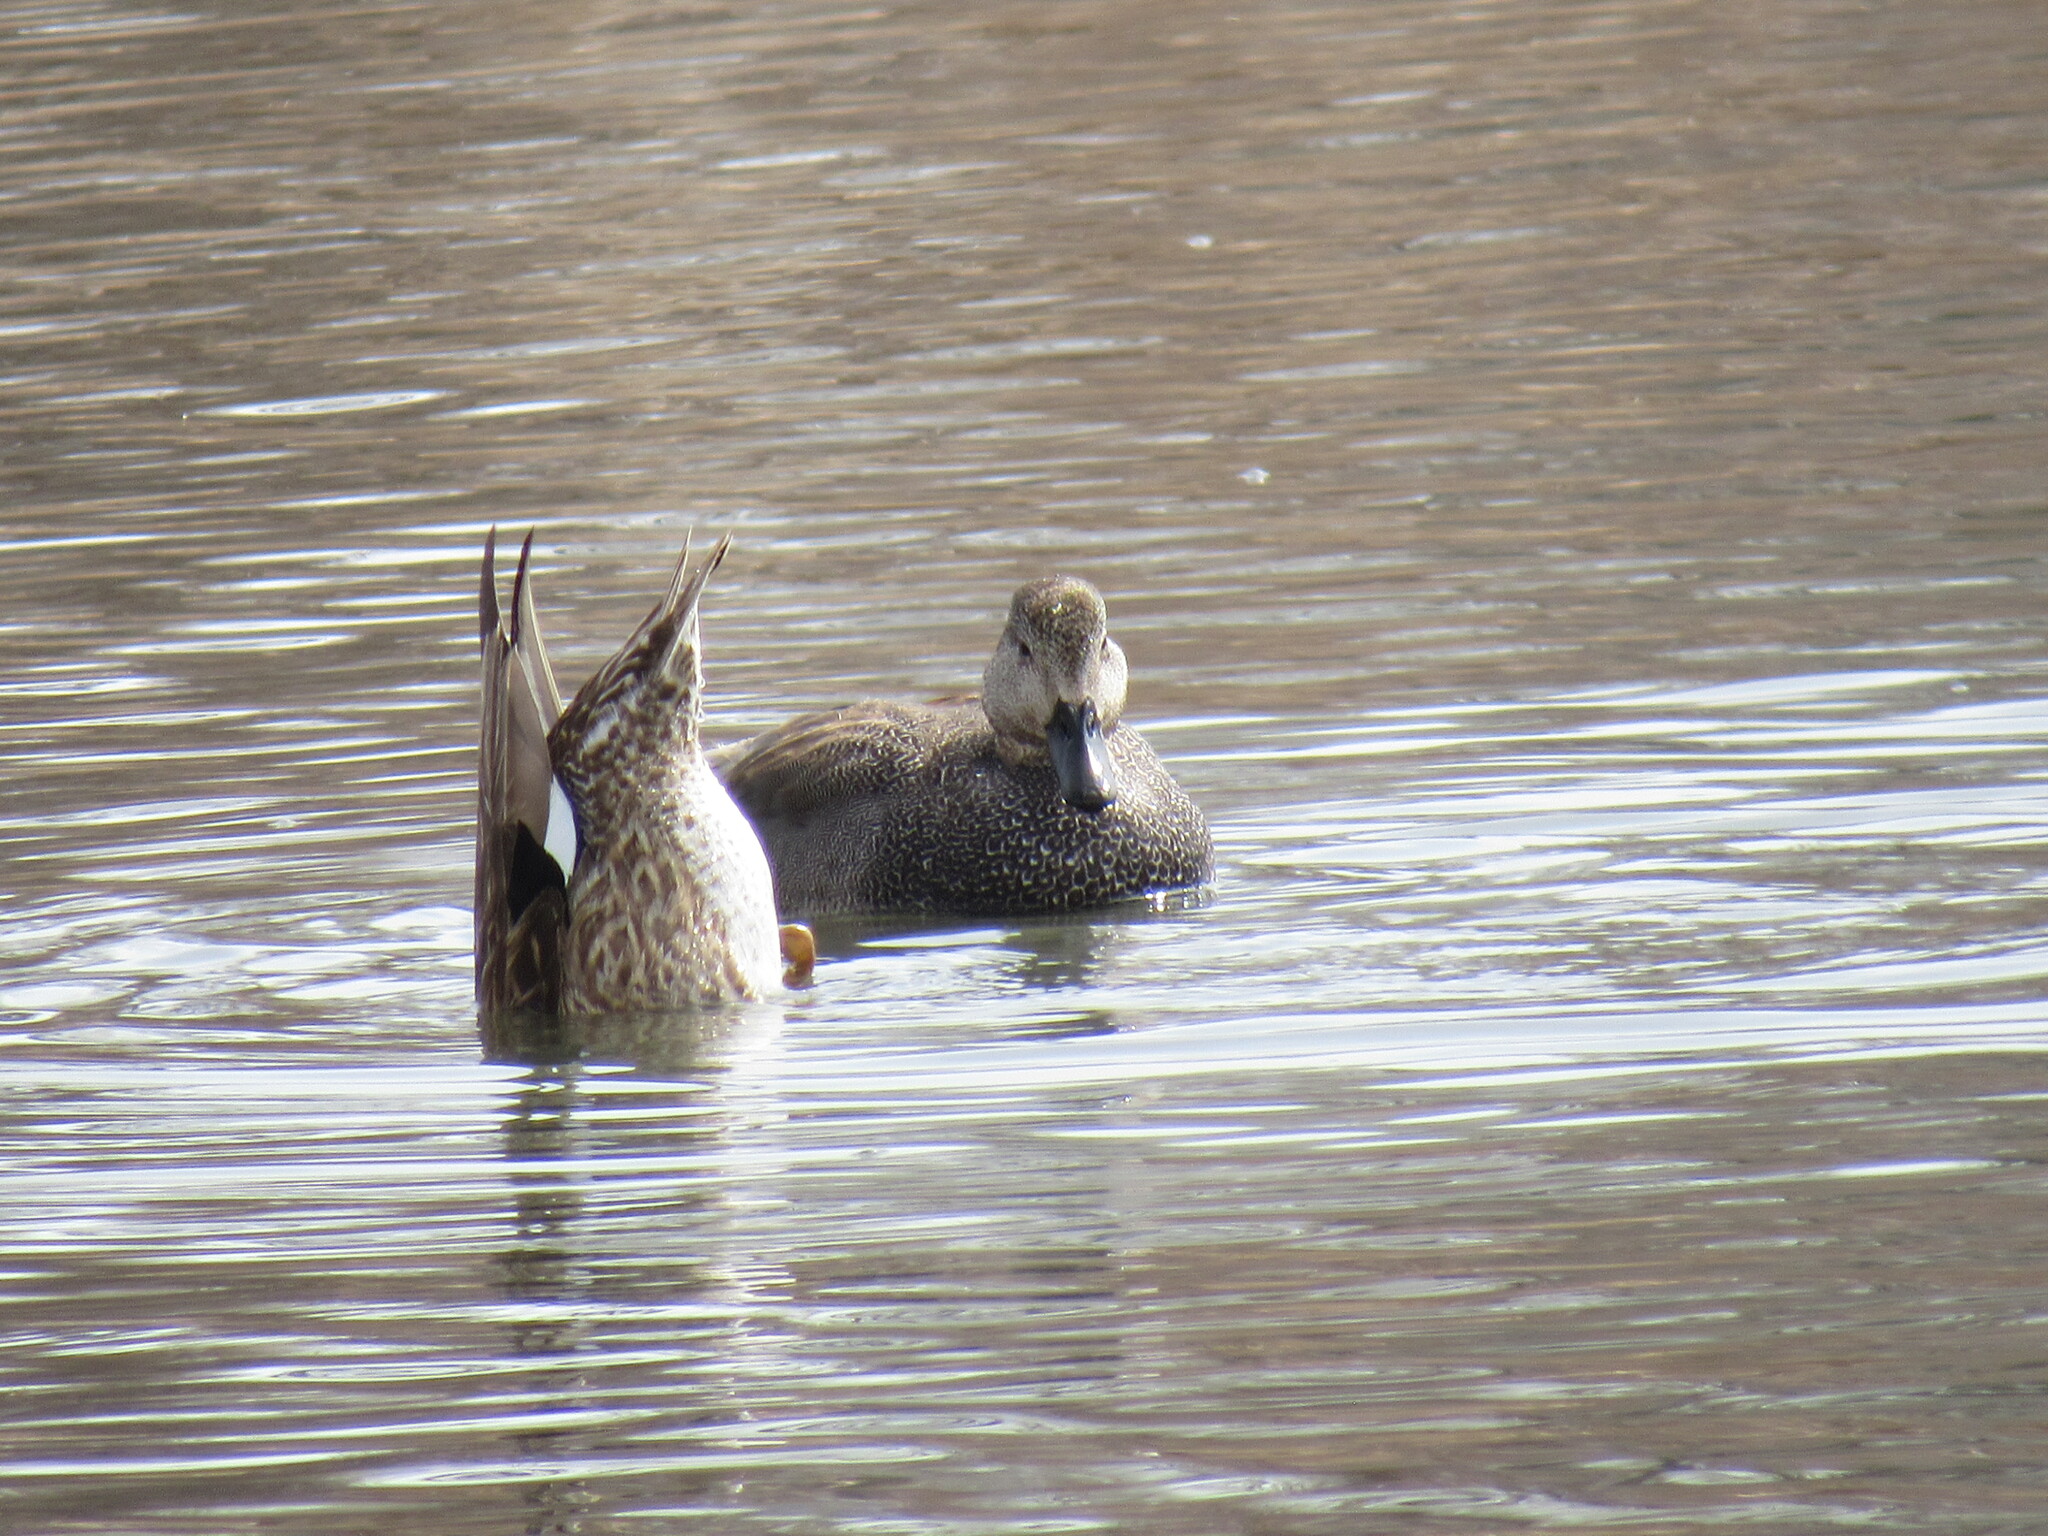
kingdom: Animalia
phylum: Chordata
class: Aves
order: Anseriformes
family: Anatidae
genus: Mareca
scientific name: Mareca strepera
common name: Gadwall
